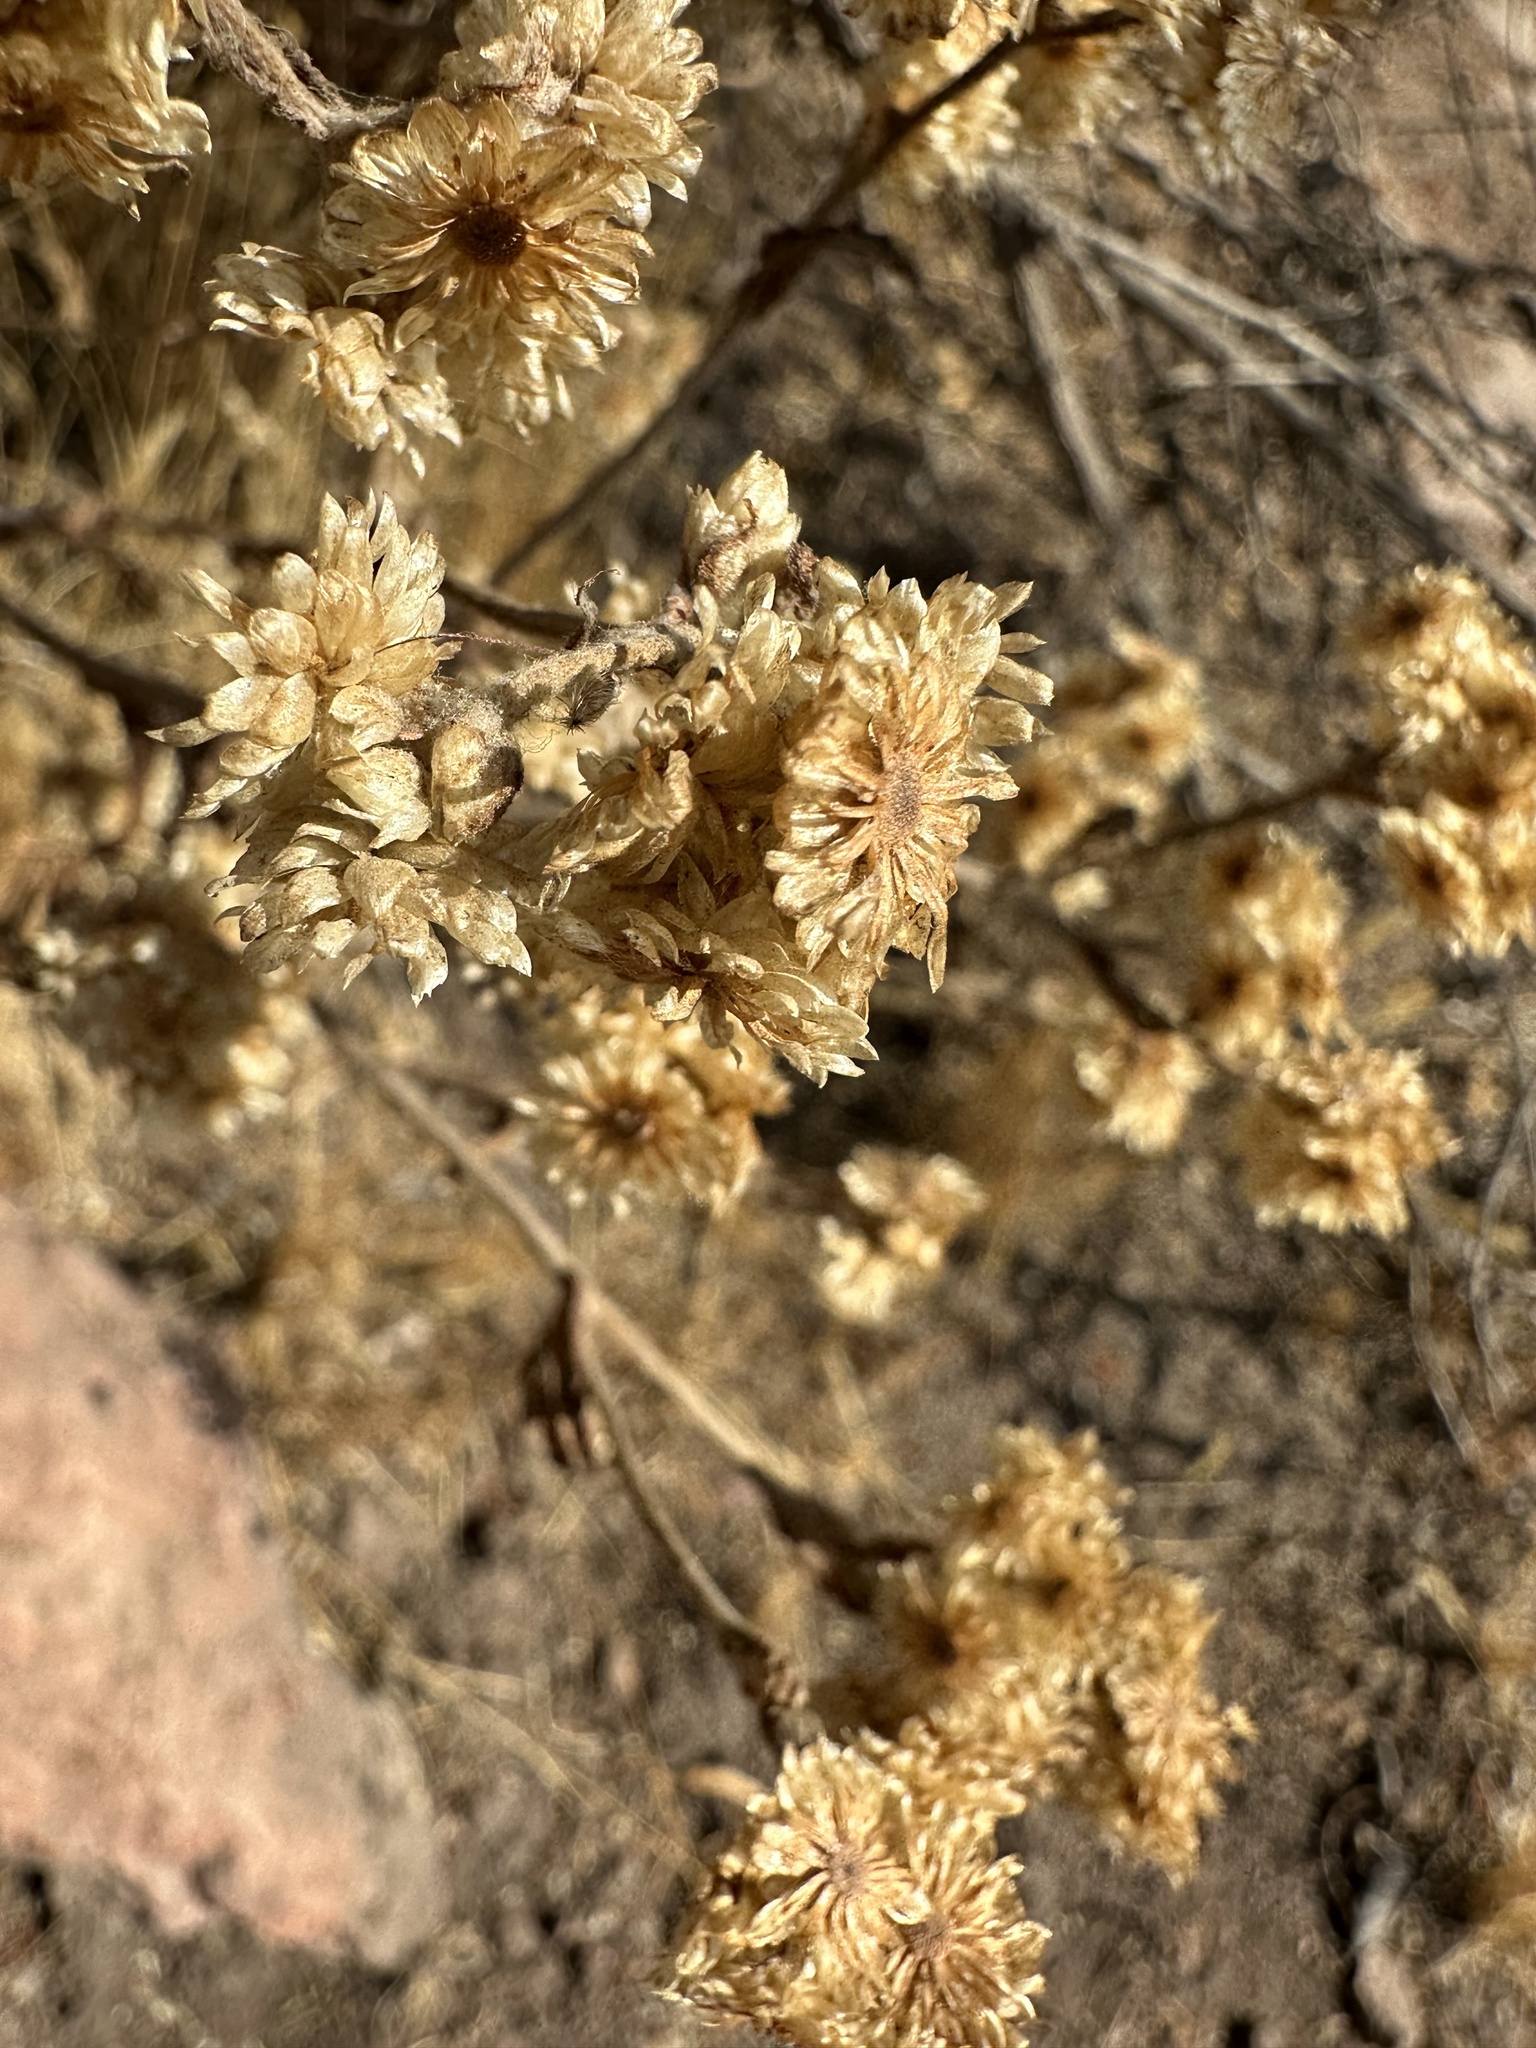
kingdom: Plantae
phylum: Tracheophyta
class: Magnoliopsida
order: Asterales
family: Asteraceae
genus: Pseudognaphalium
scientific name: Pseudognaphalium viravira
